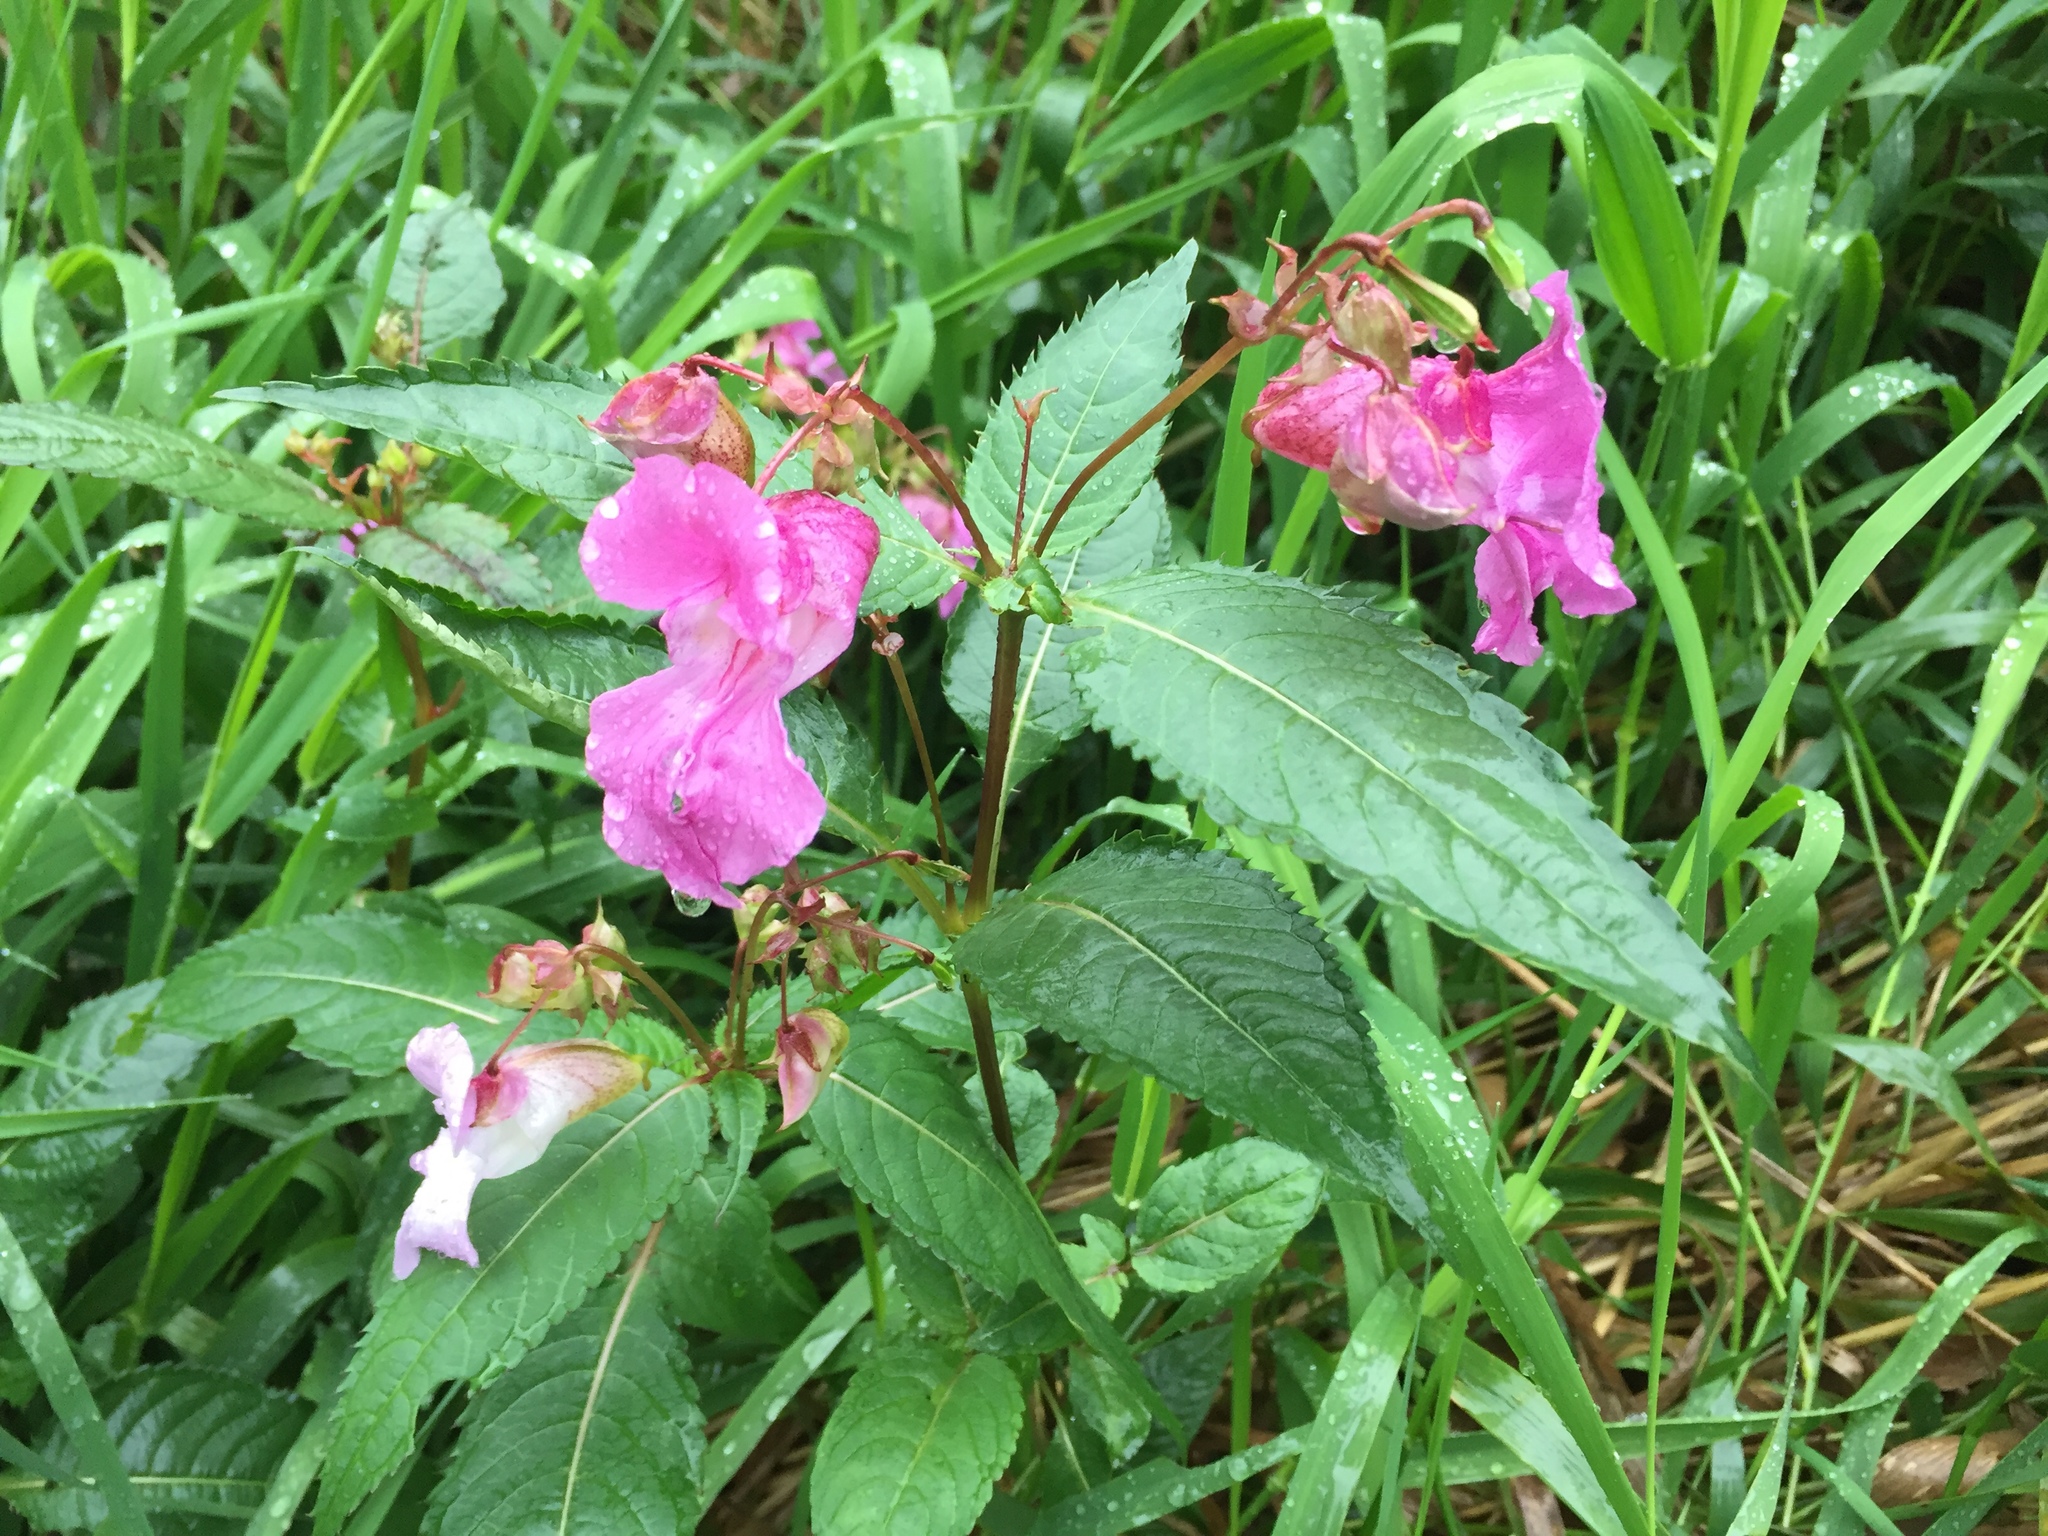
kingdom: Plantae
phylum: Tracheophyta
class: Magnoliopsida
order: Ericales
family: Balsaminaceae
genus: Impatiens
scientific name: Impatiens glandulifera
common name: Himalayan balsam
